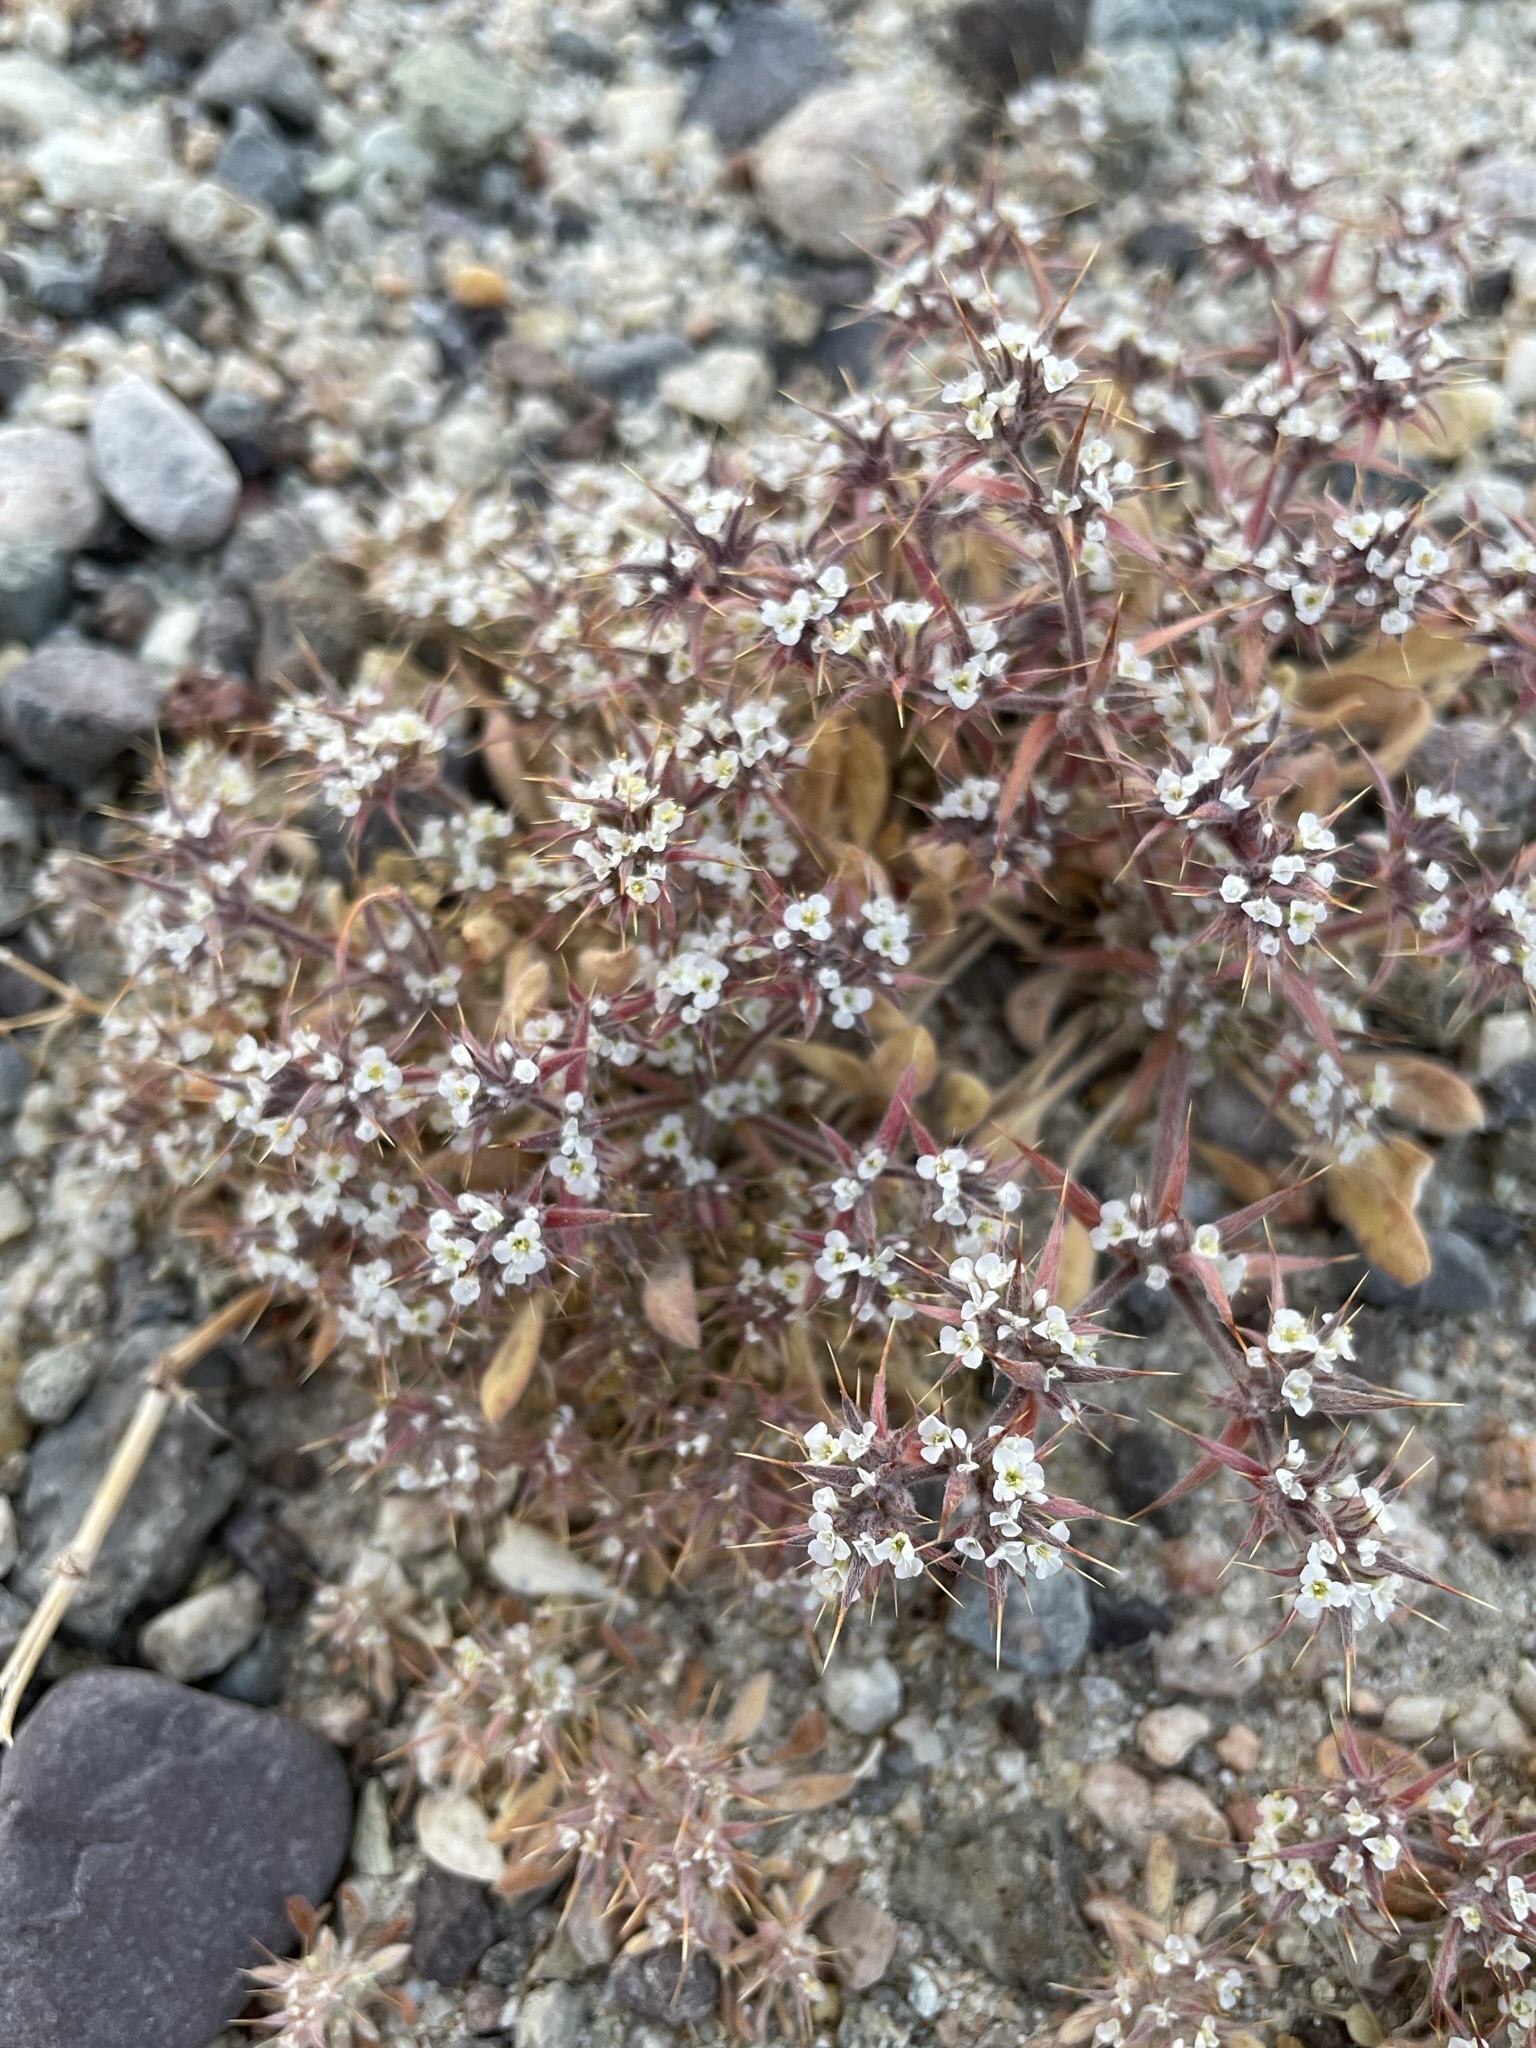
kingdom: Plantae
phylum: Tracheophyta
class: Magnoliopsida
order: Caryophyllales
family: Polygonaceae
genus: Chorizanthe
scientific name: Chorizanthe spinosa
